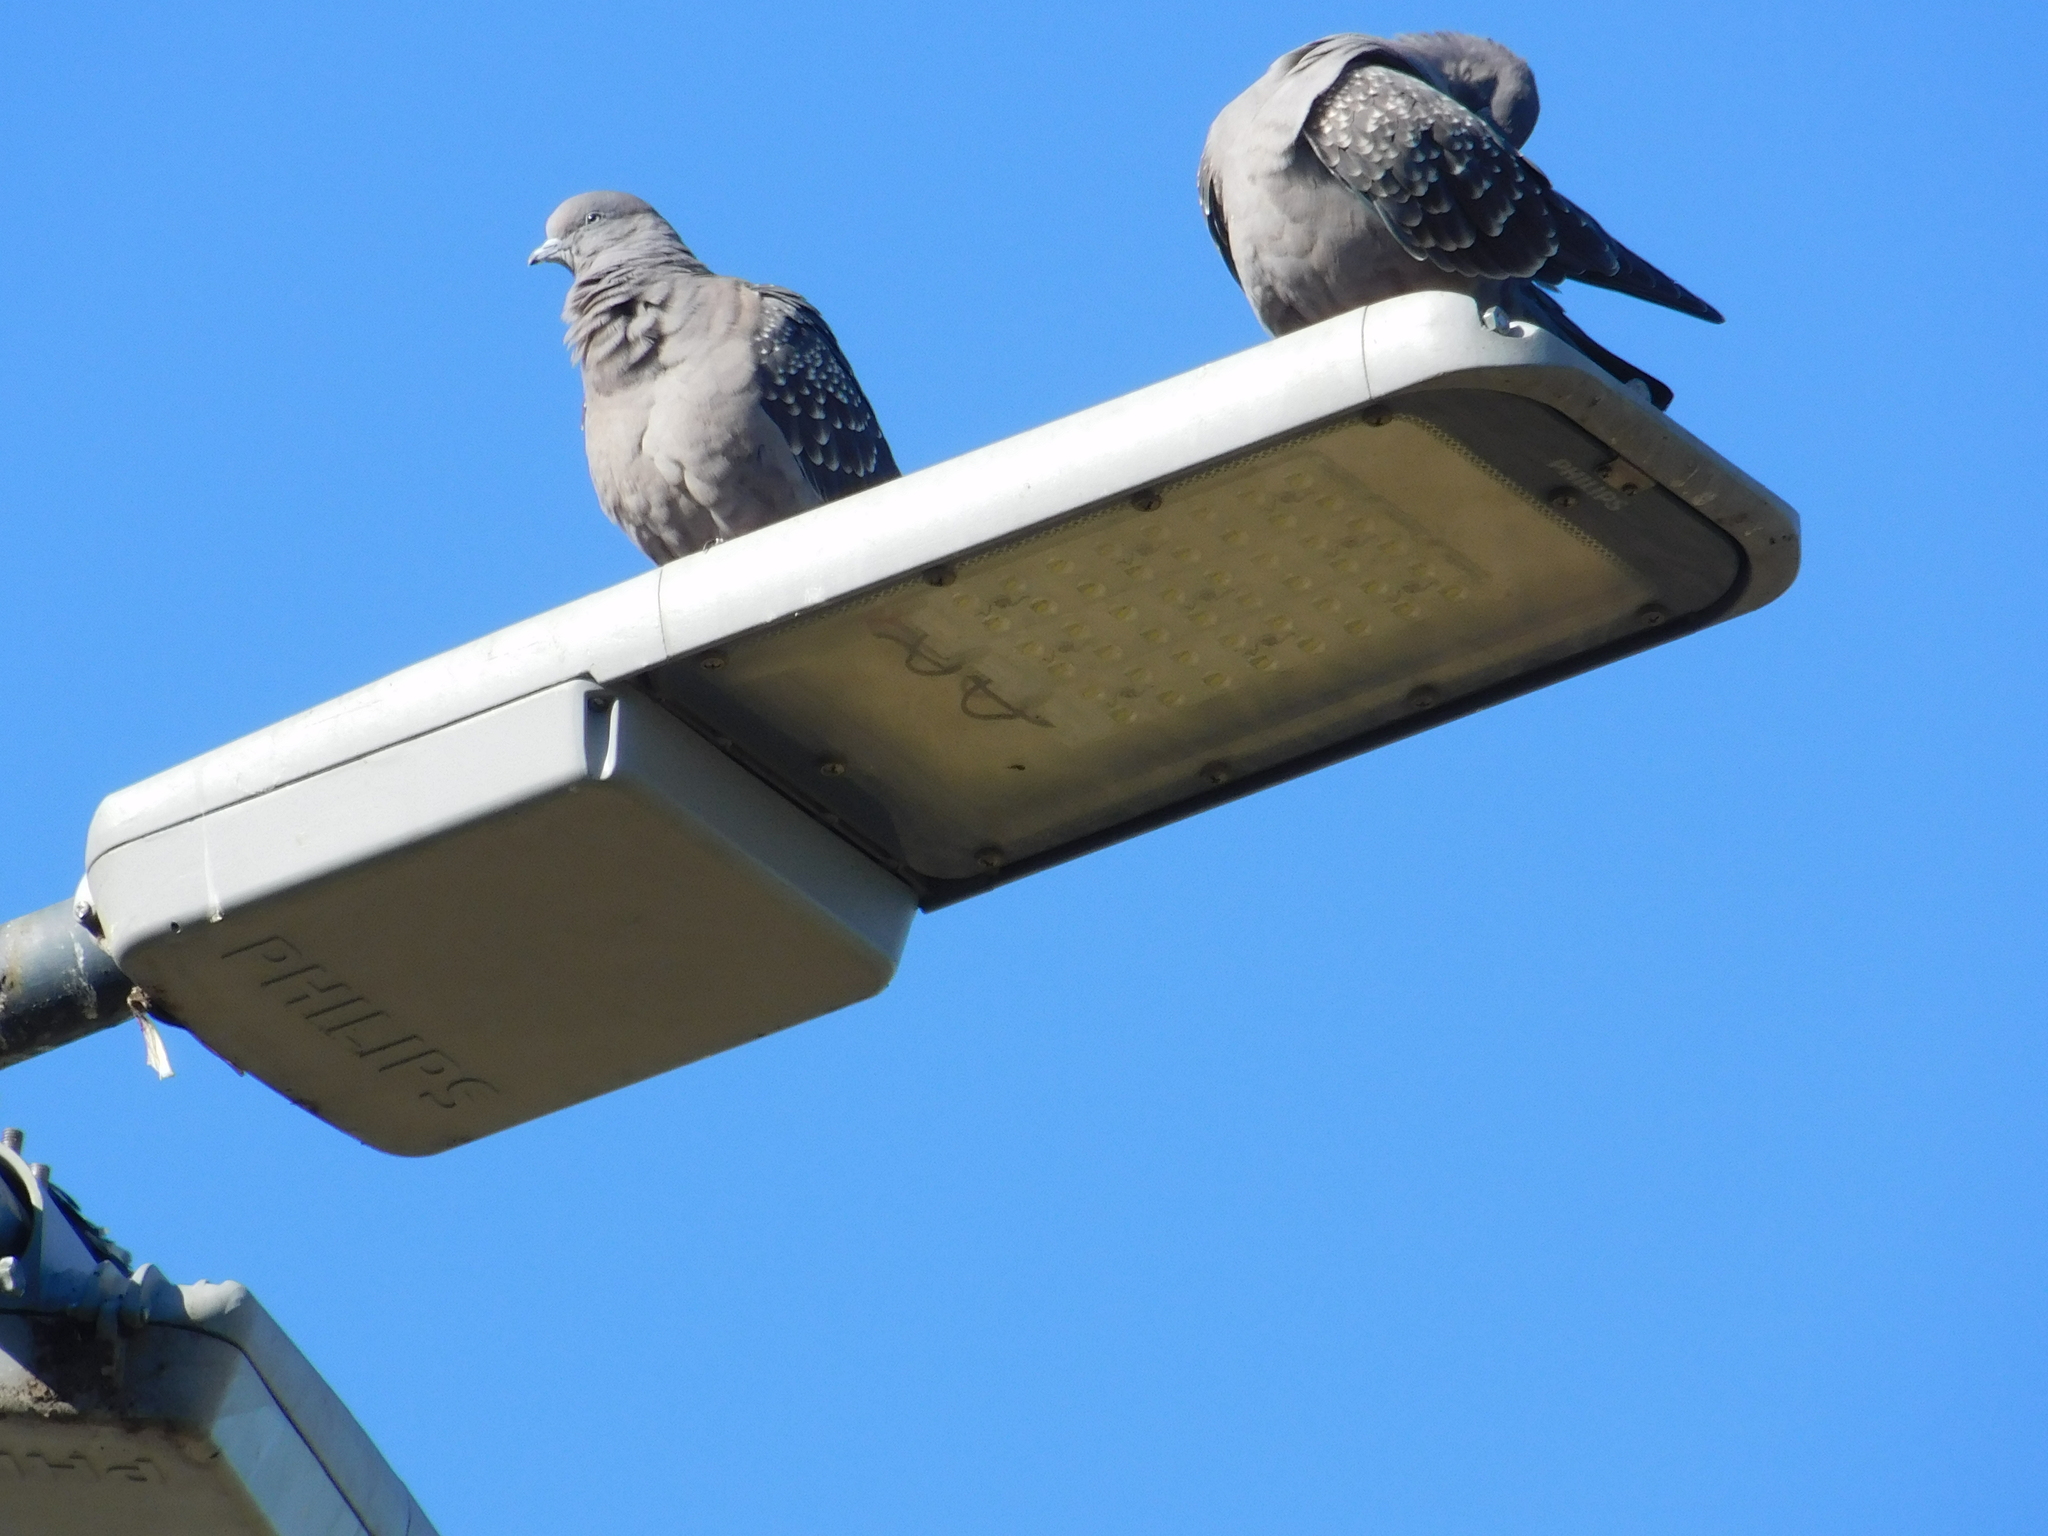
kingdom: Animalia
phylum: Chordata
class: Aves
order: Columbiformes
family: Columbidae
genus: Patagioenas
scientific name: Patagioenas maculosa
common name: Spot-winged pigeon
